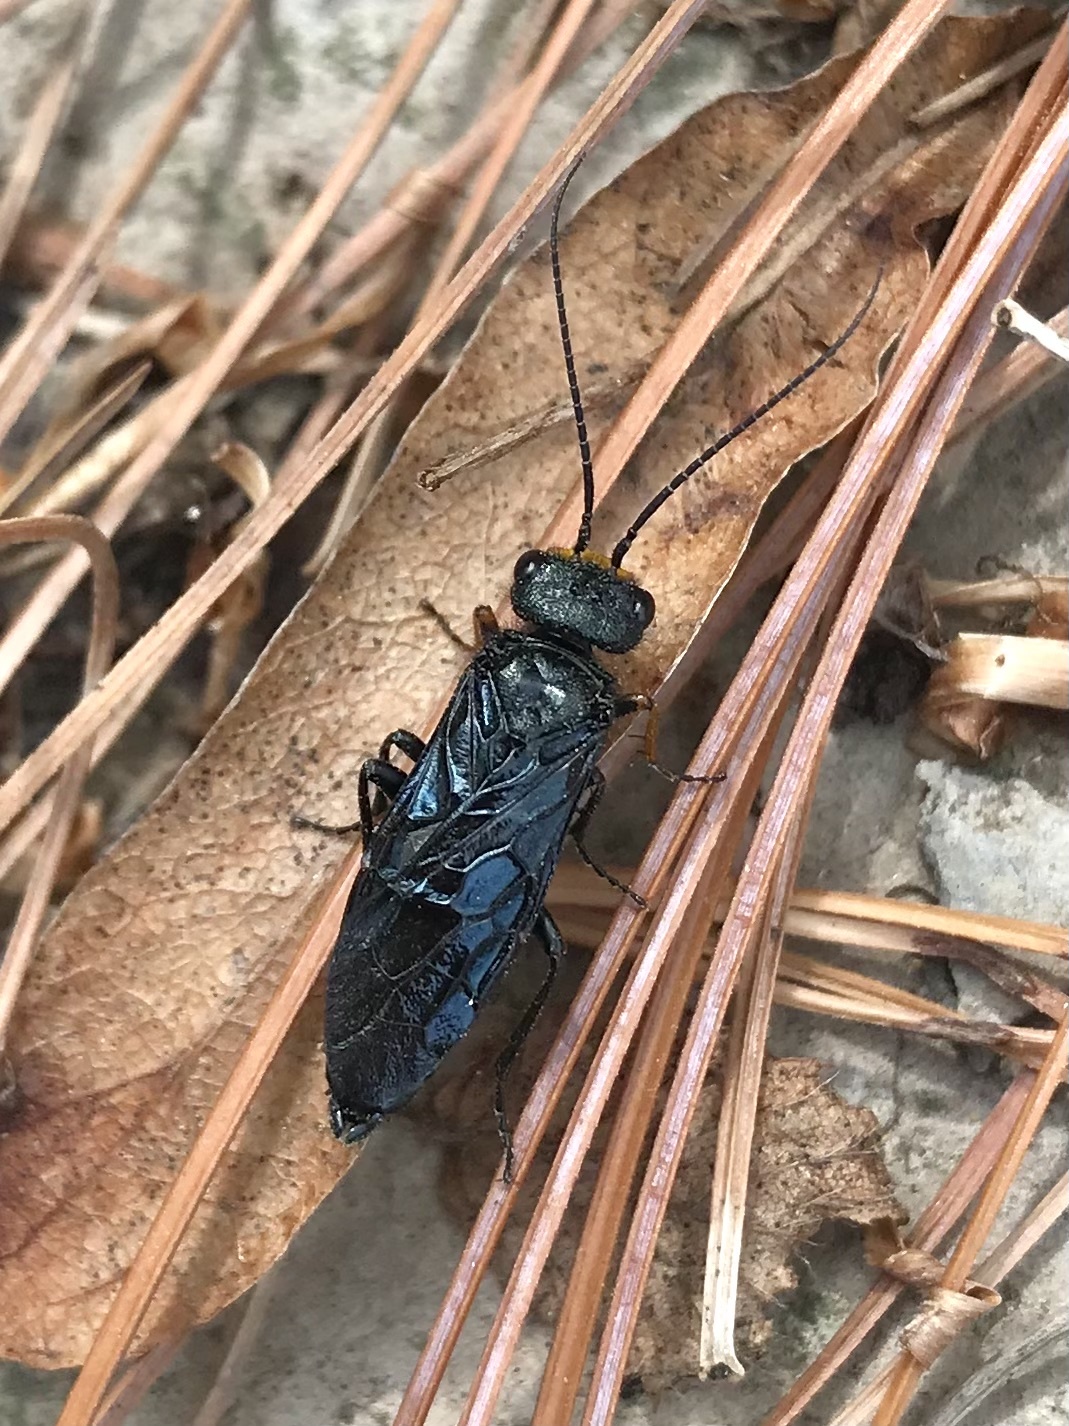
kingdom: Animalia
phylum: Arthropoda
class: Insecta
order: Hymenoptera
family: Pamphiliidae
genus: Acantholyda
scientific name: Acantholyda erythrocephala
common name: Pine false webworm
